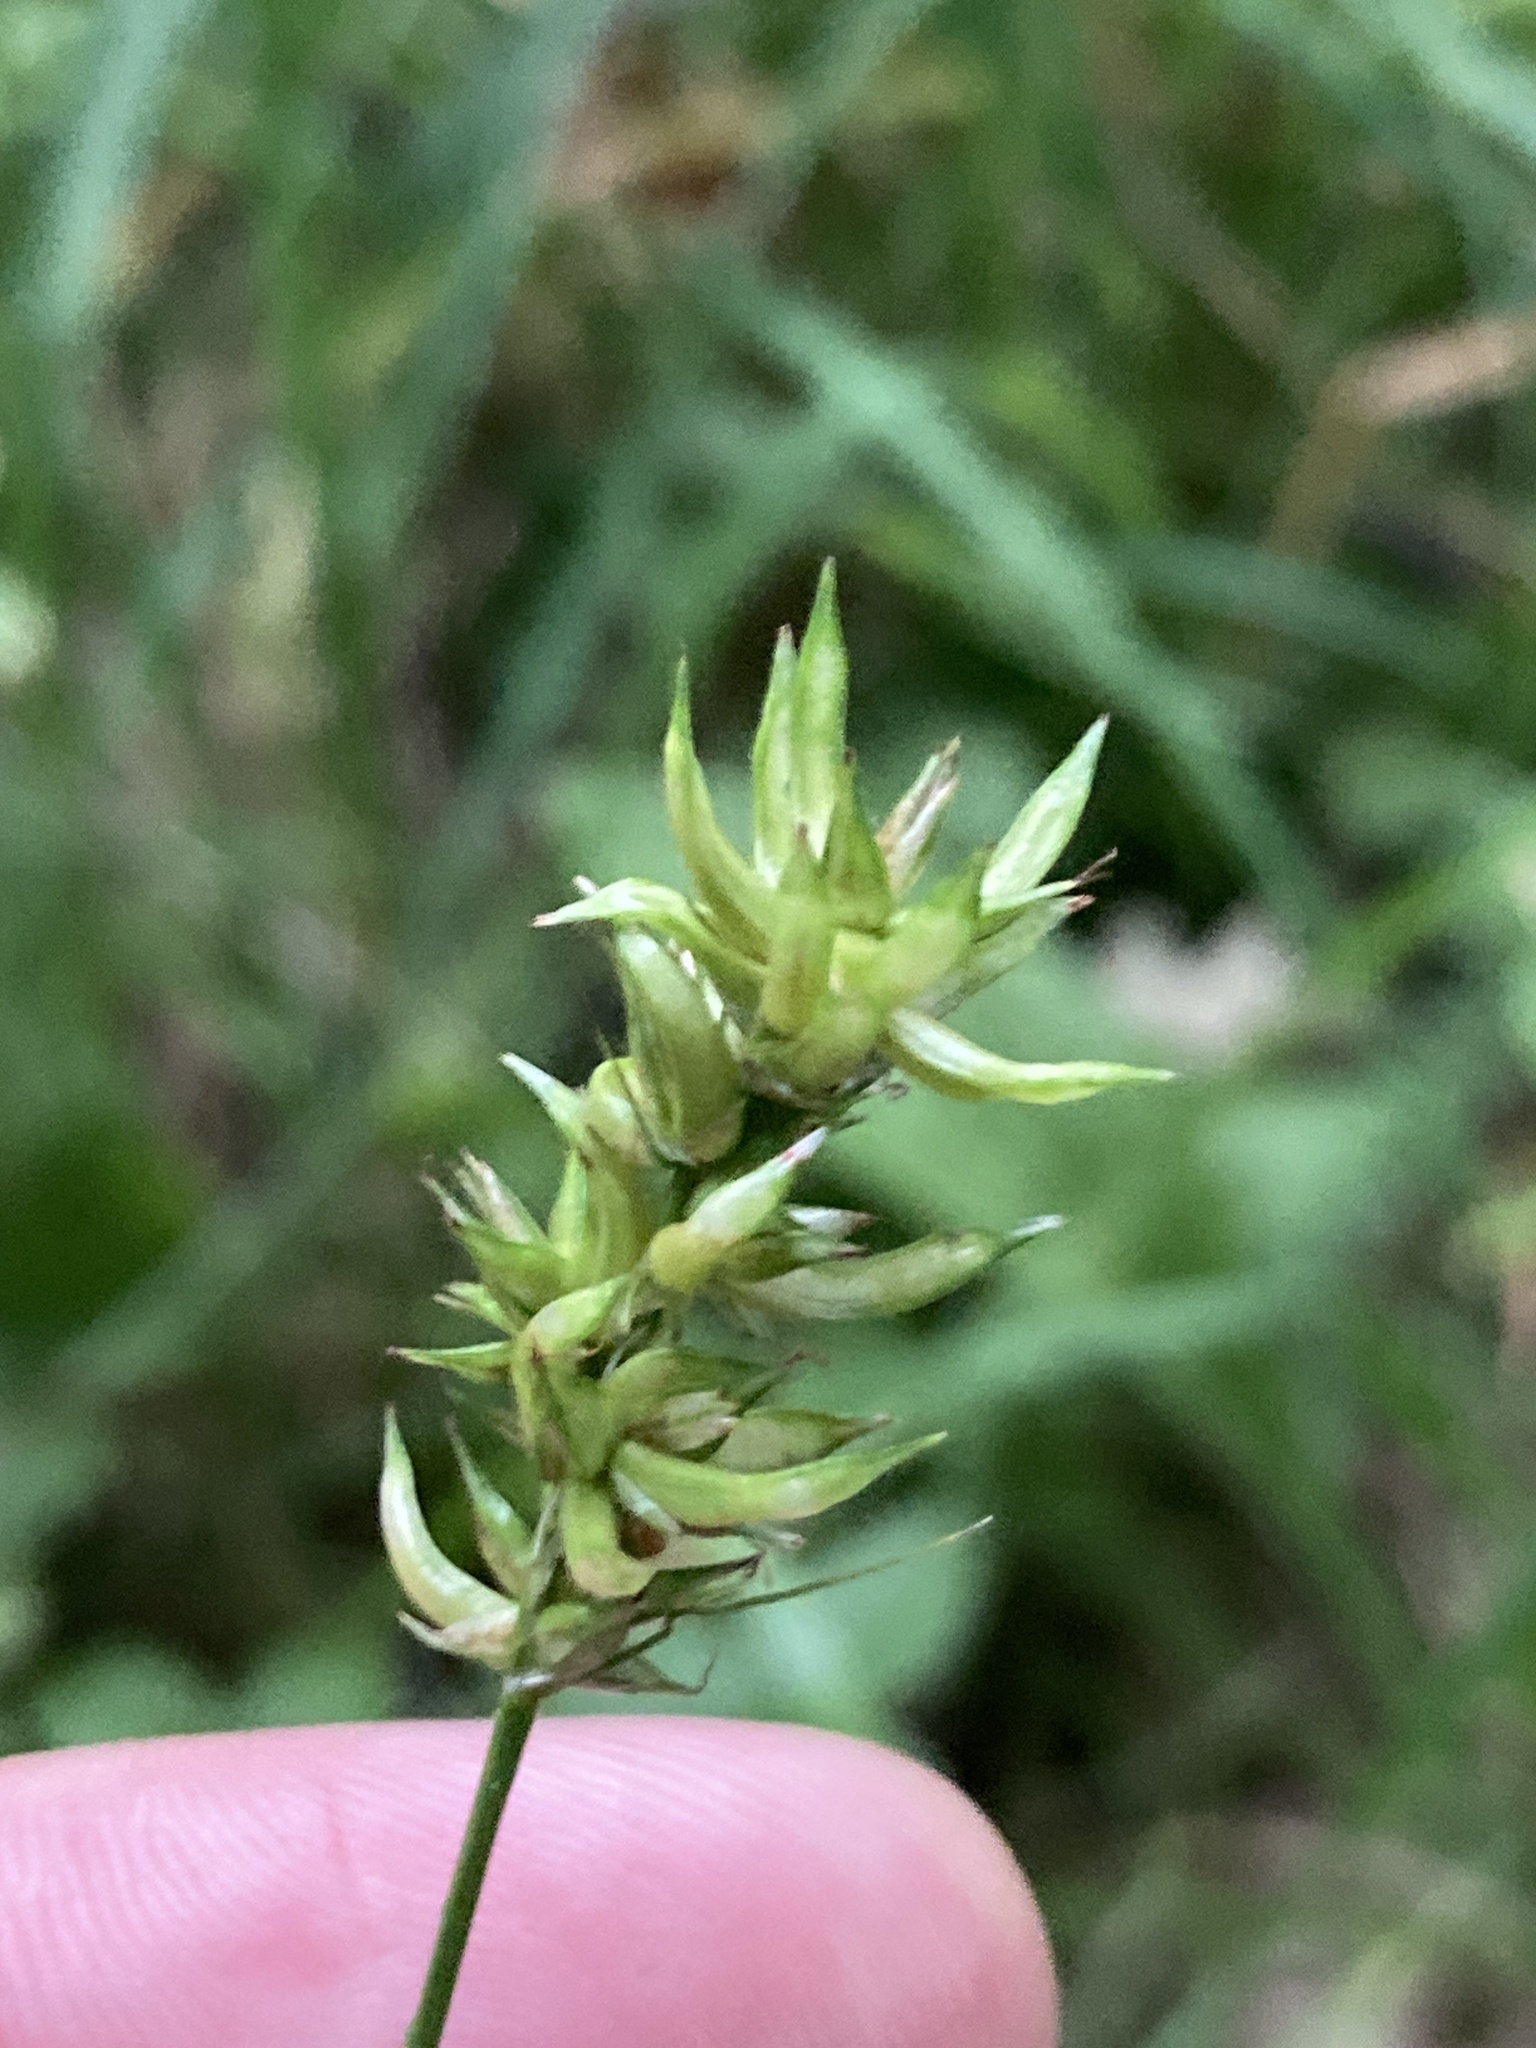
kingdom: Plantae
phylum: Tracheophyta
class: Liliopsida
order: Poales
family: Cyperaceae
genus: Carex
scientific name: Carex spicata
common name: Spiked sedge
